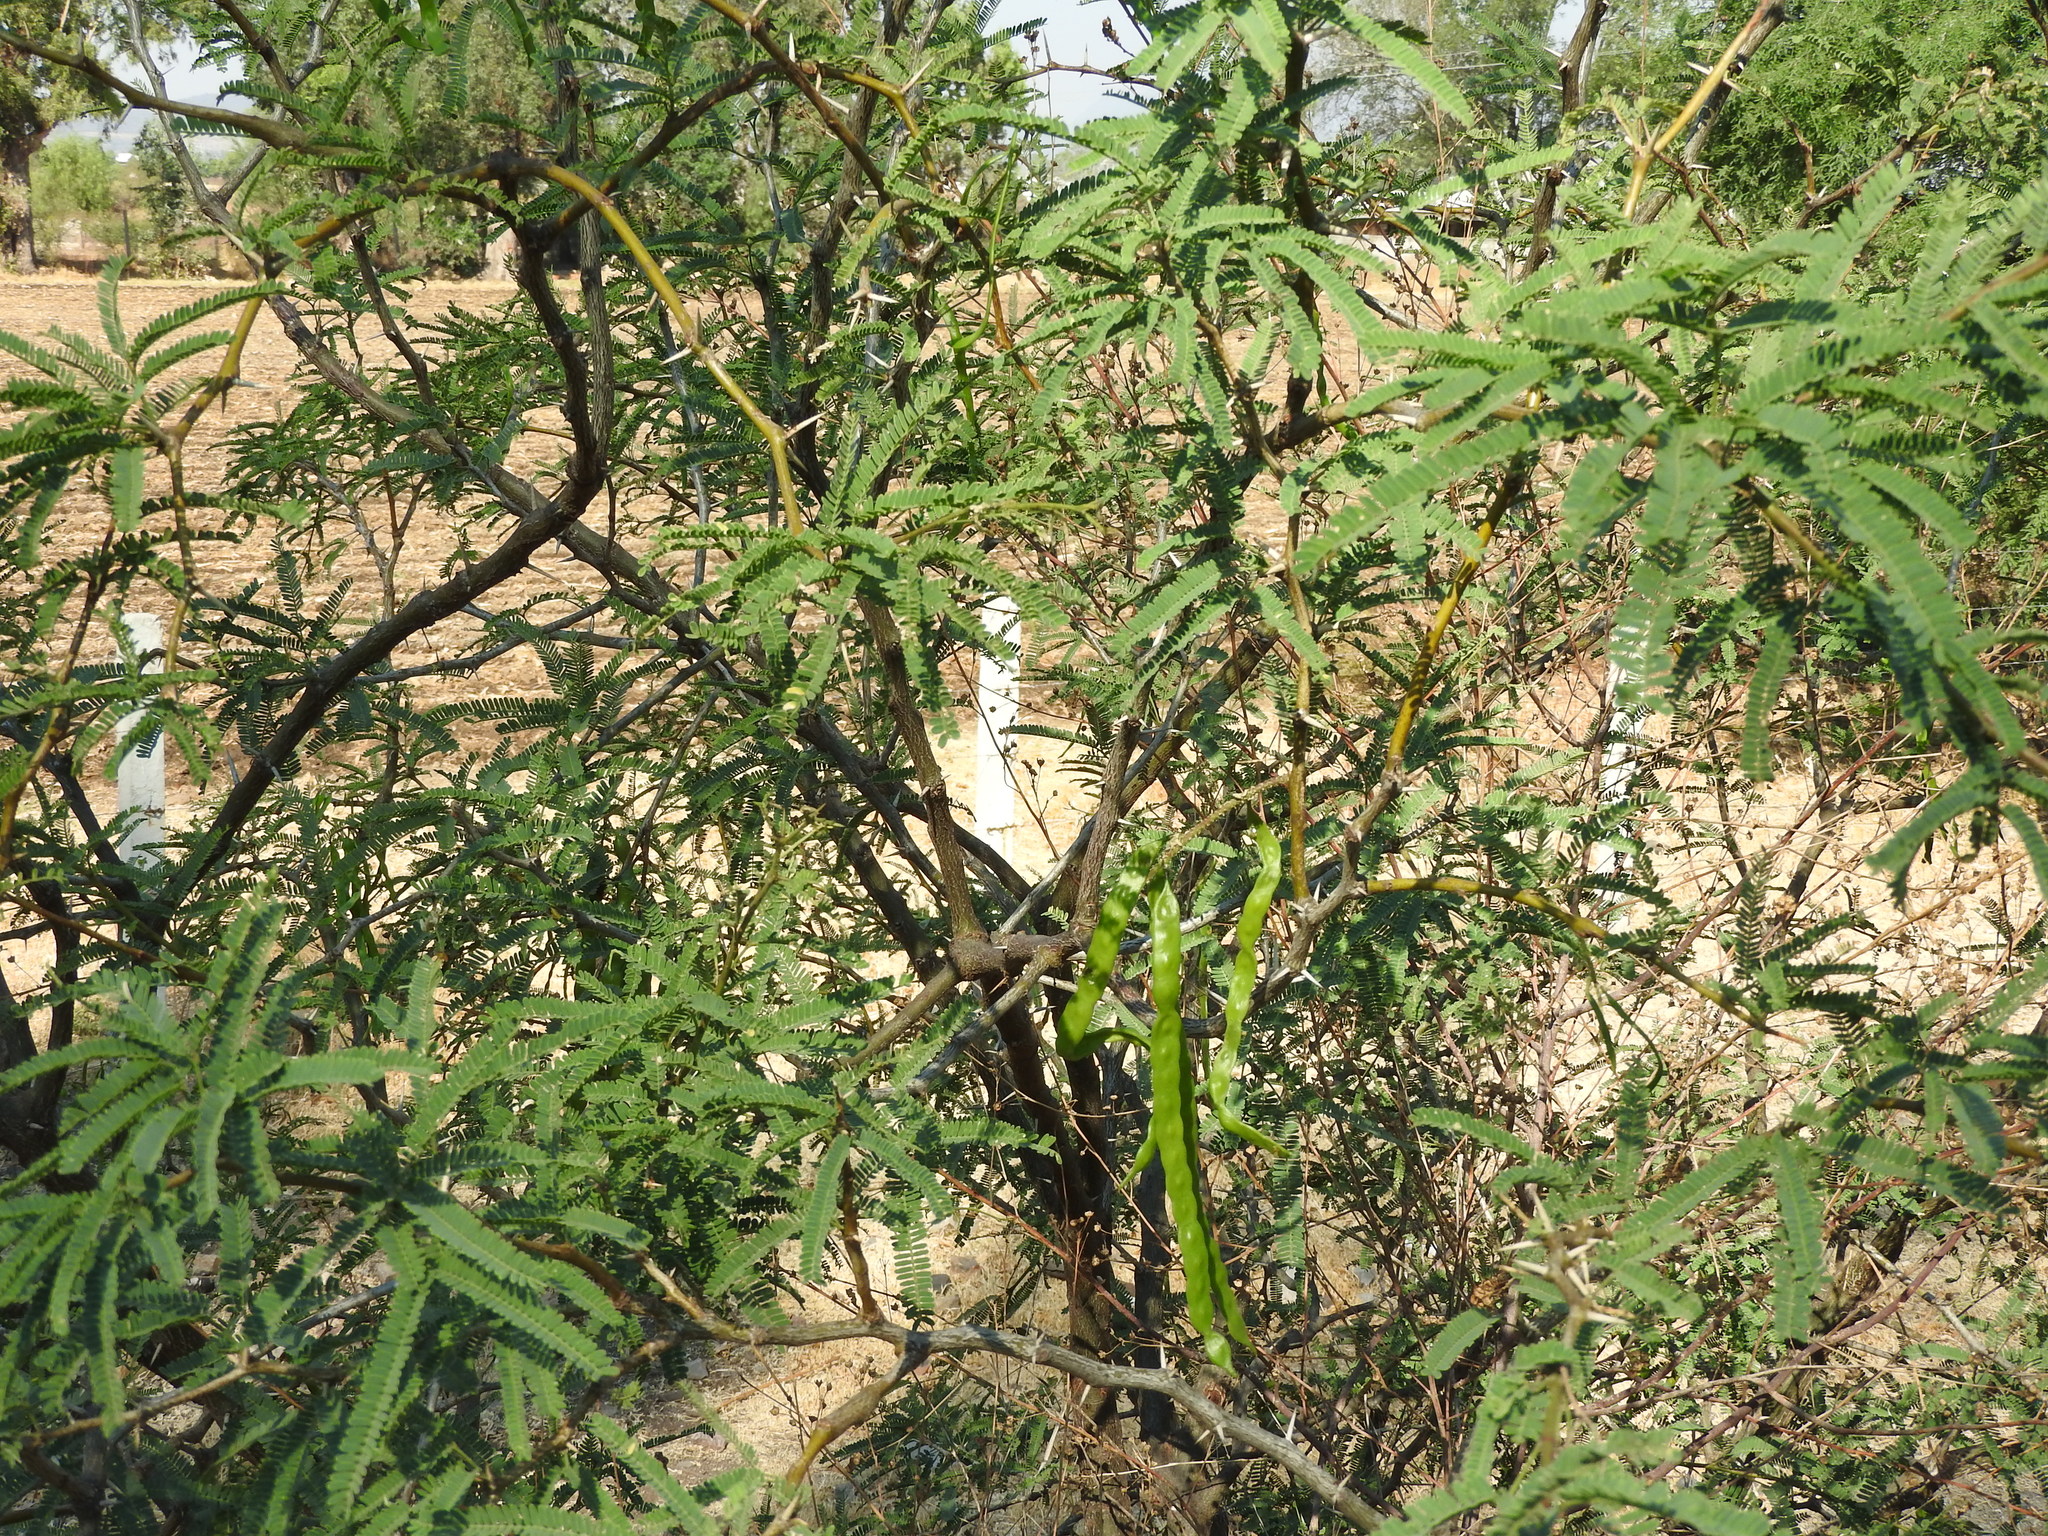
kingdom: Plantae
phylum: Tracheophyta
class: Magnoliopsida
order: Fabales
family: Fabaceae
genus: Prosopis
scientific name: Prosopis laevigata
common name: Smooth mesquite
